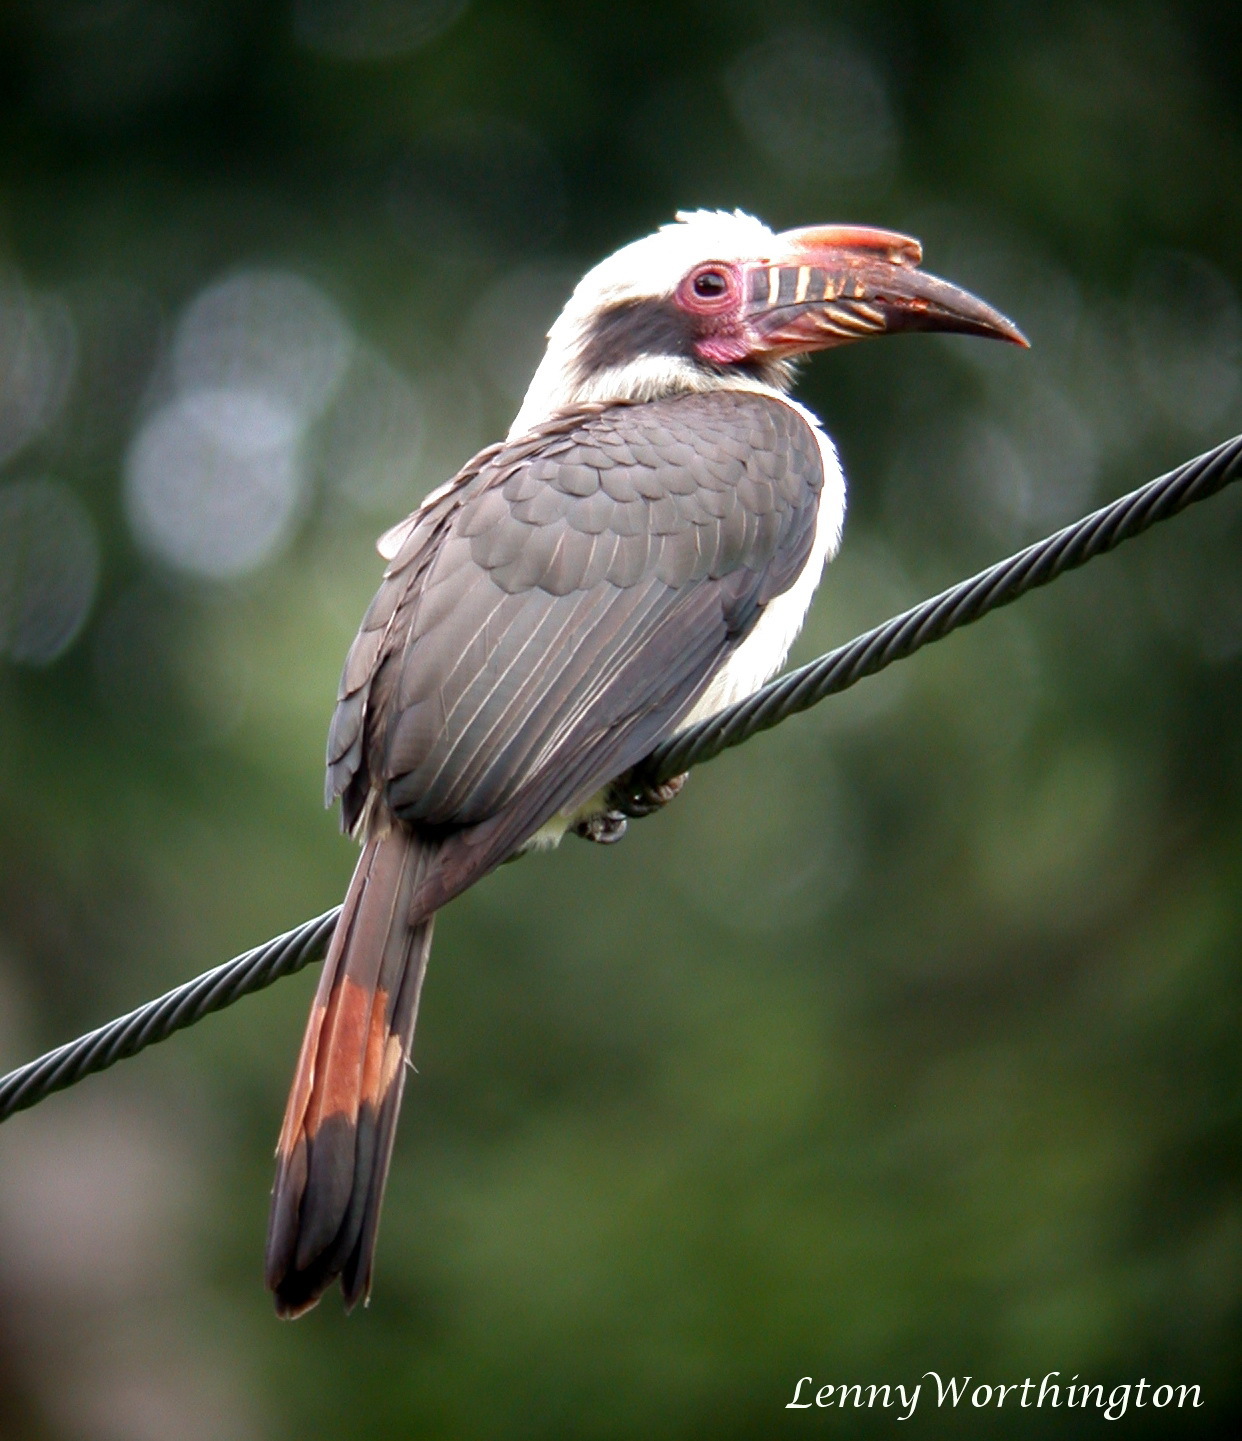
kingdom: Animalia
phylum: Chordata
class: Aves
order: Bucerotiformes
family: Bucerotidae
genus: Penelopides
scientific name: Penelopides manillae
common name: Luzon hornbill
